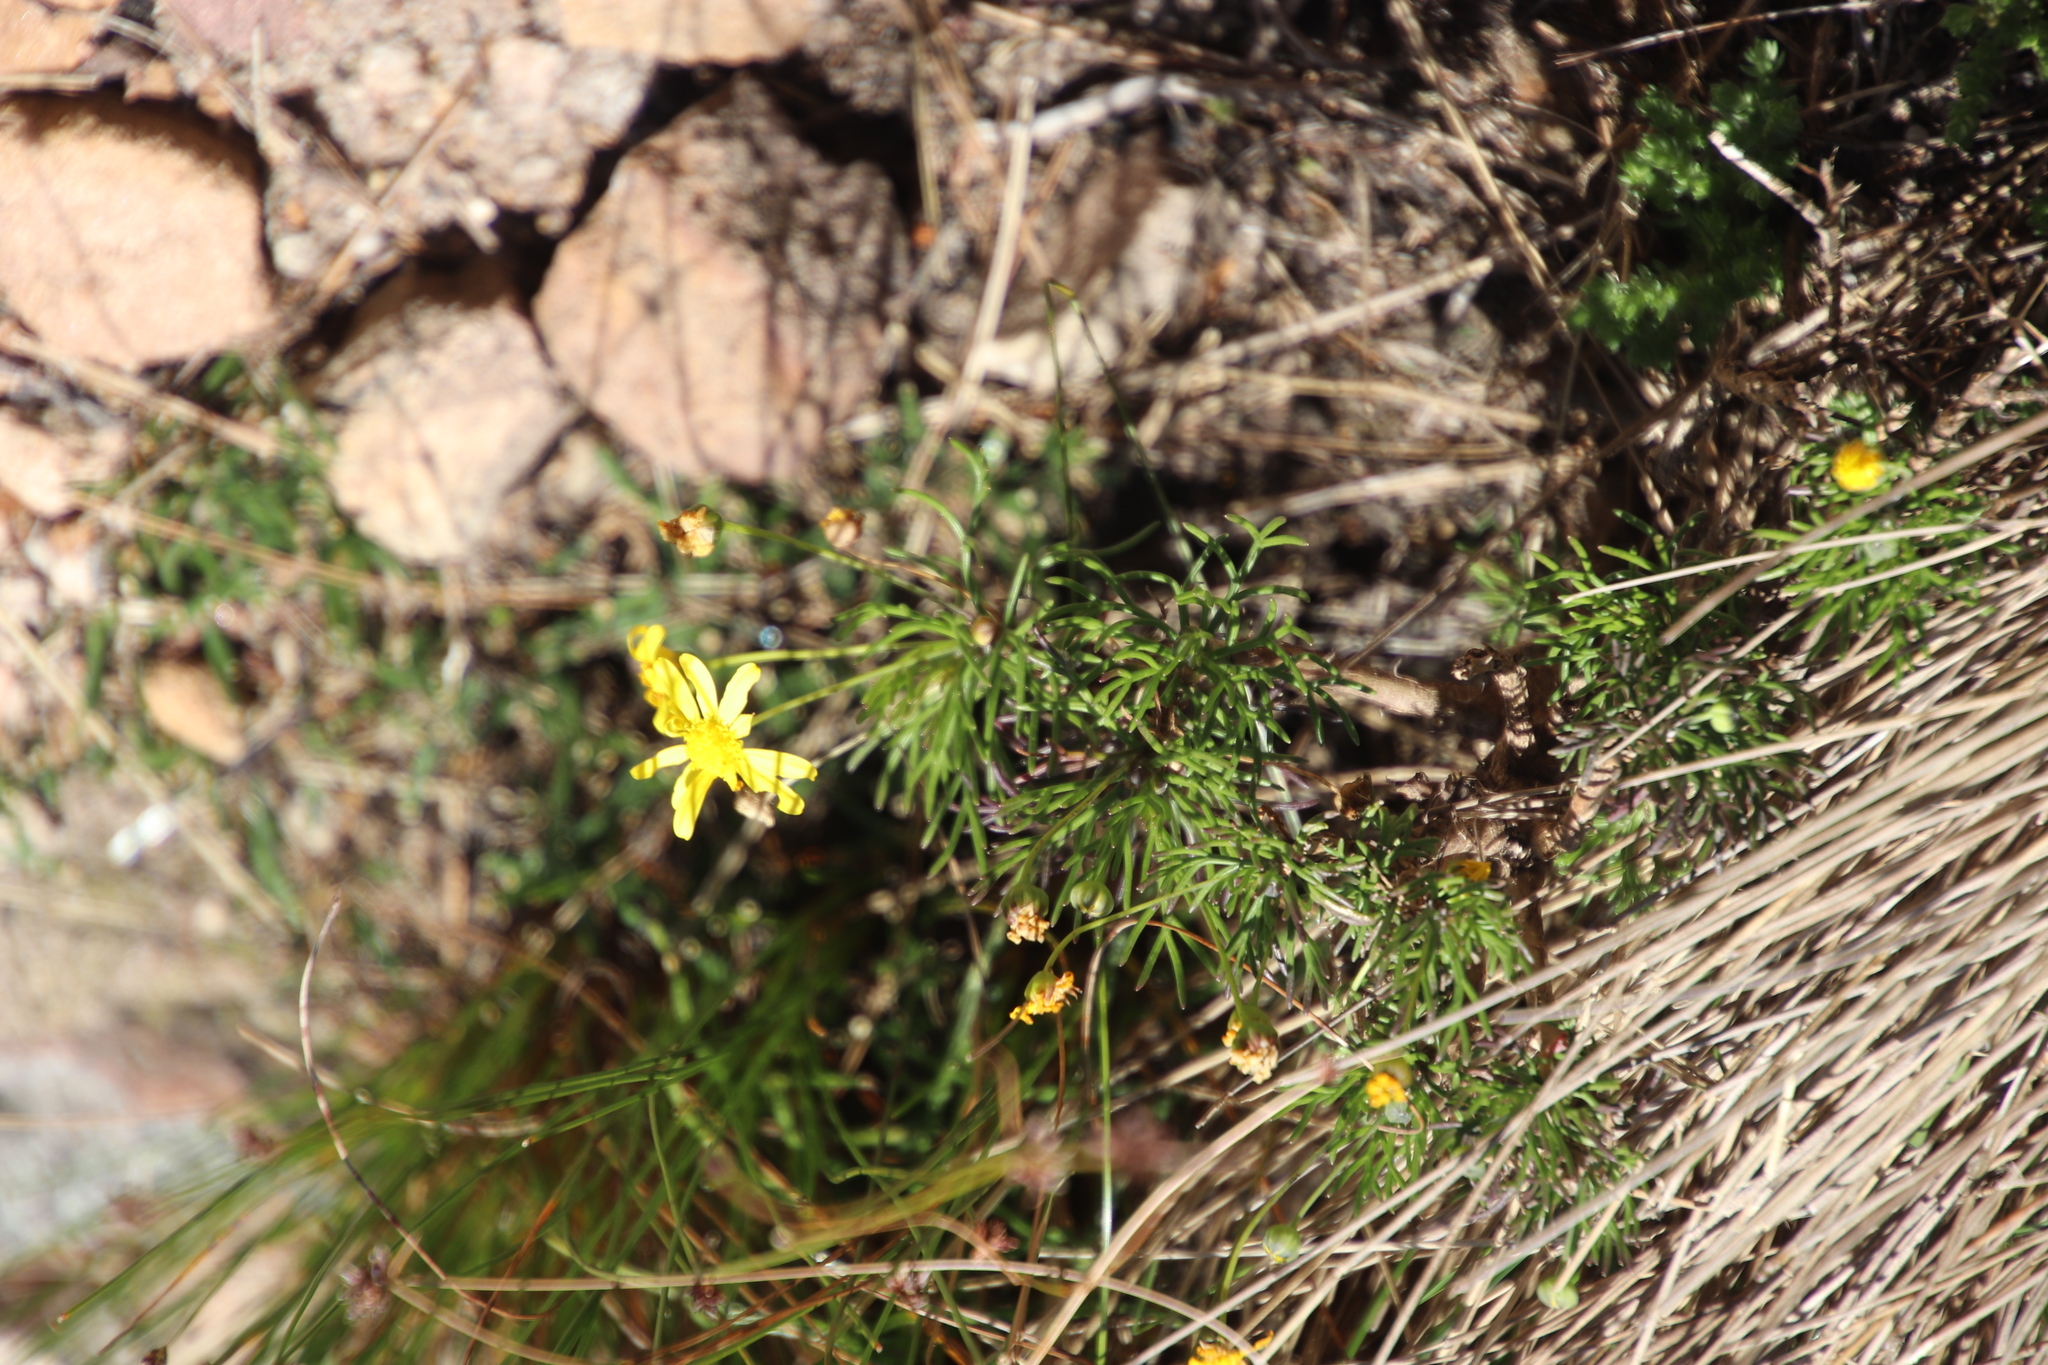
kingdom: Plantae
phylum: Tracheophyta
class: Magnoliopsida
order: Asterales
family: Asteraceae
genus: Euryops
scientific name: Euryops abrotanifolius
